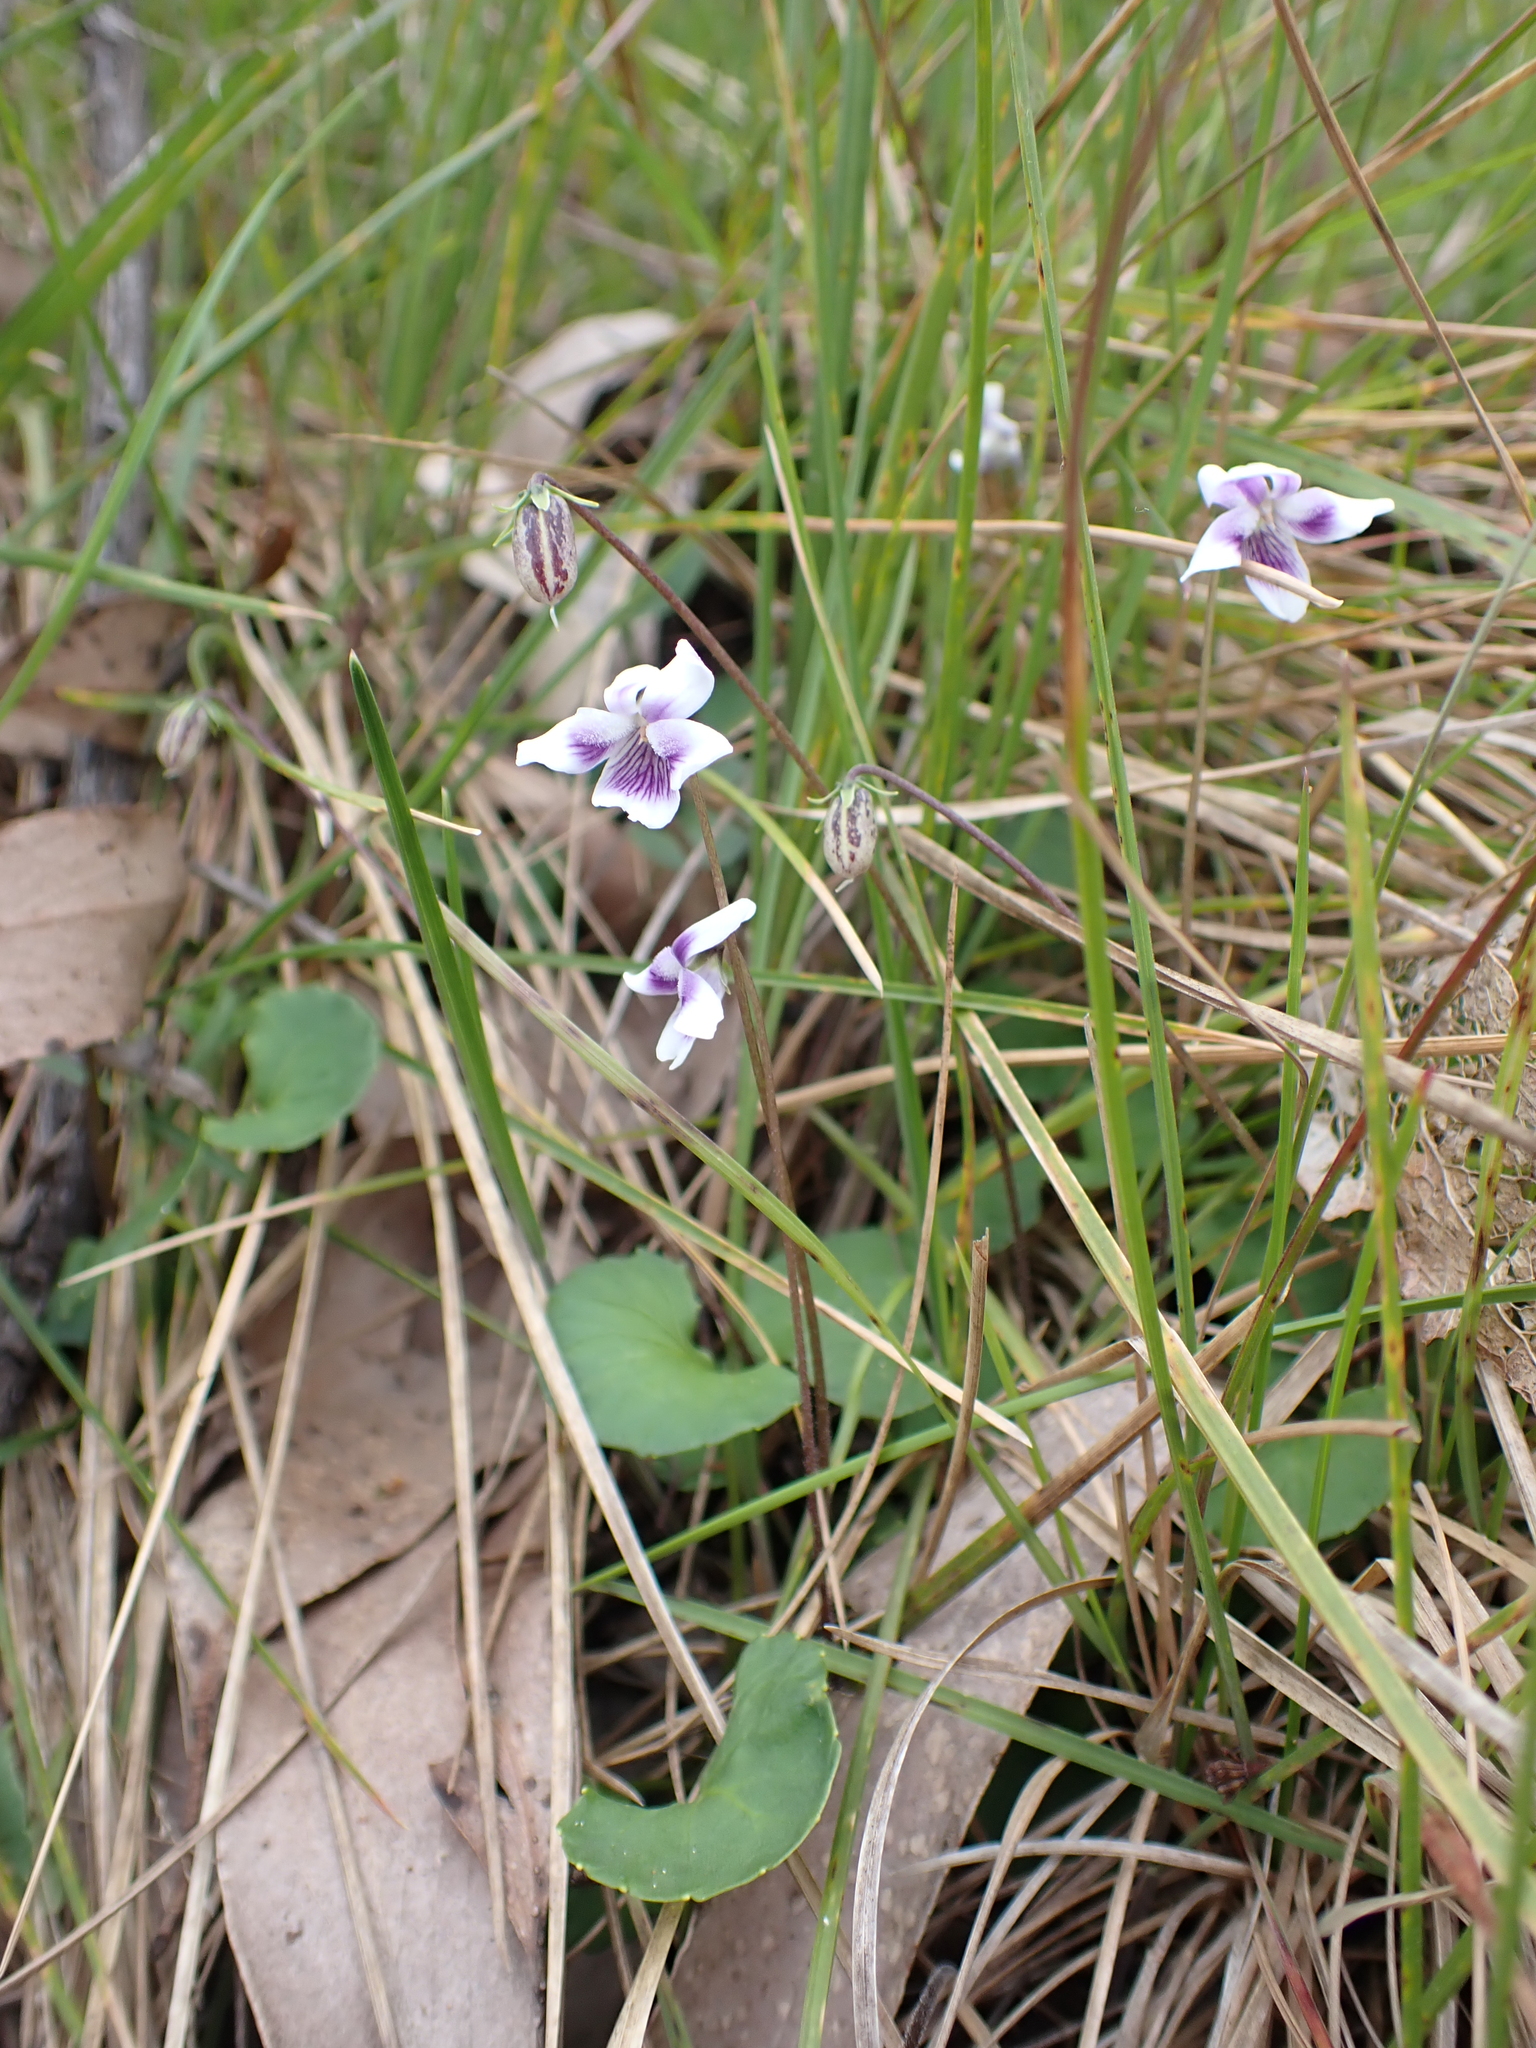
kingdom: Plantae
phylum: Tracheophyta
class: Magnoliopsida
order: Malpighiales
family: Violaceae
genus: Viola
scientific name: Viola hederacea
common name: Australian violet
